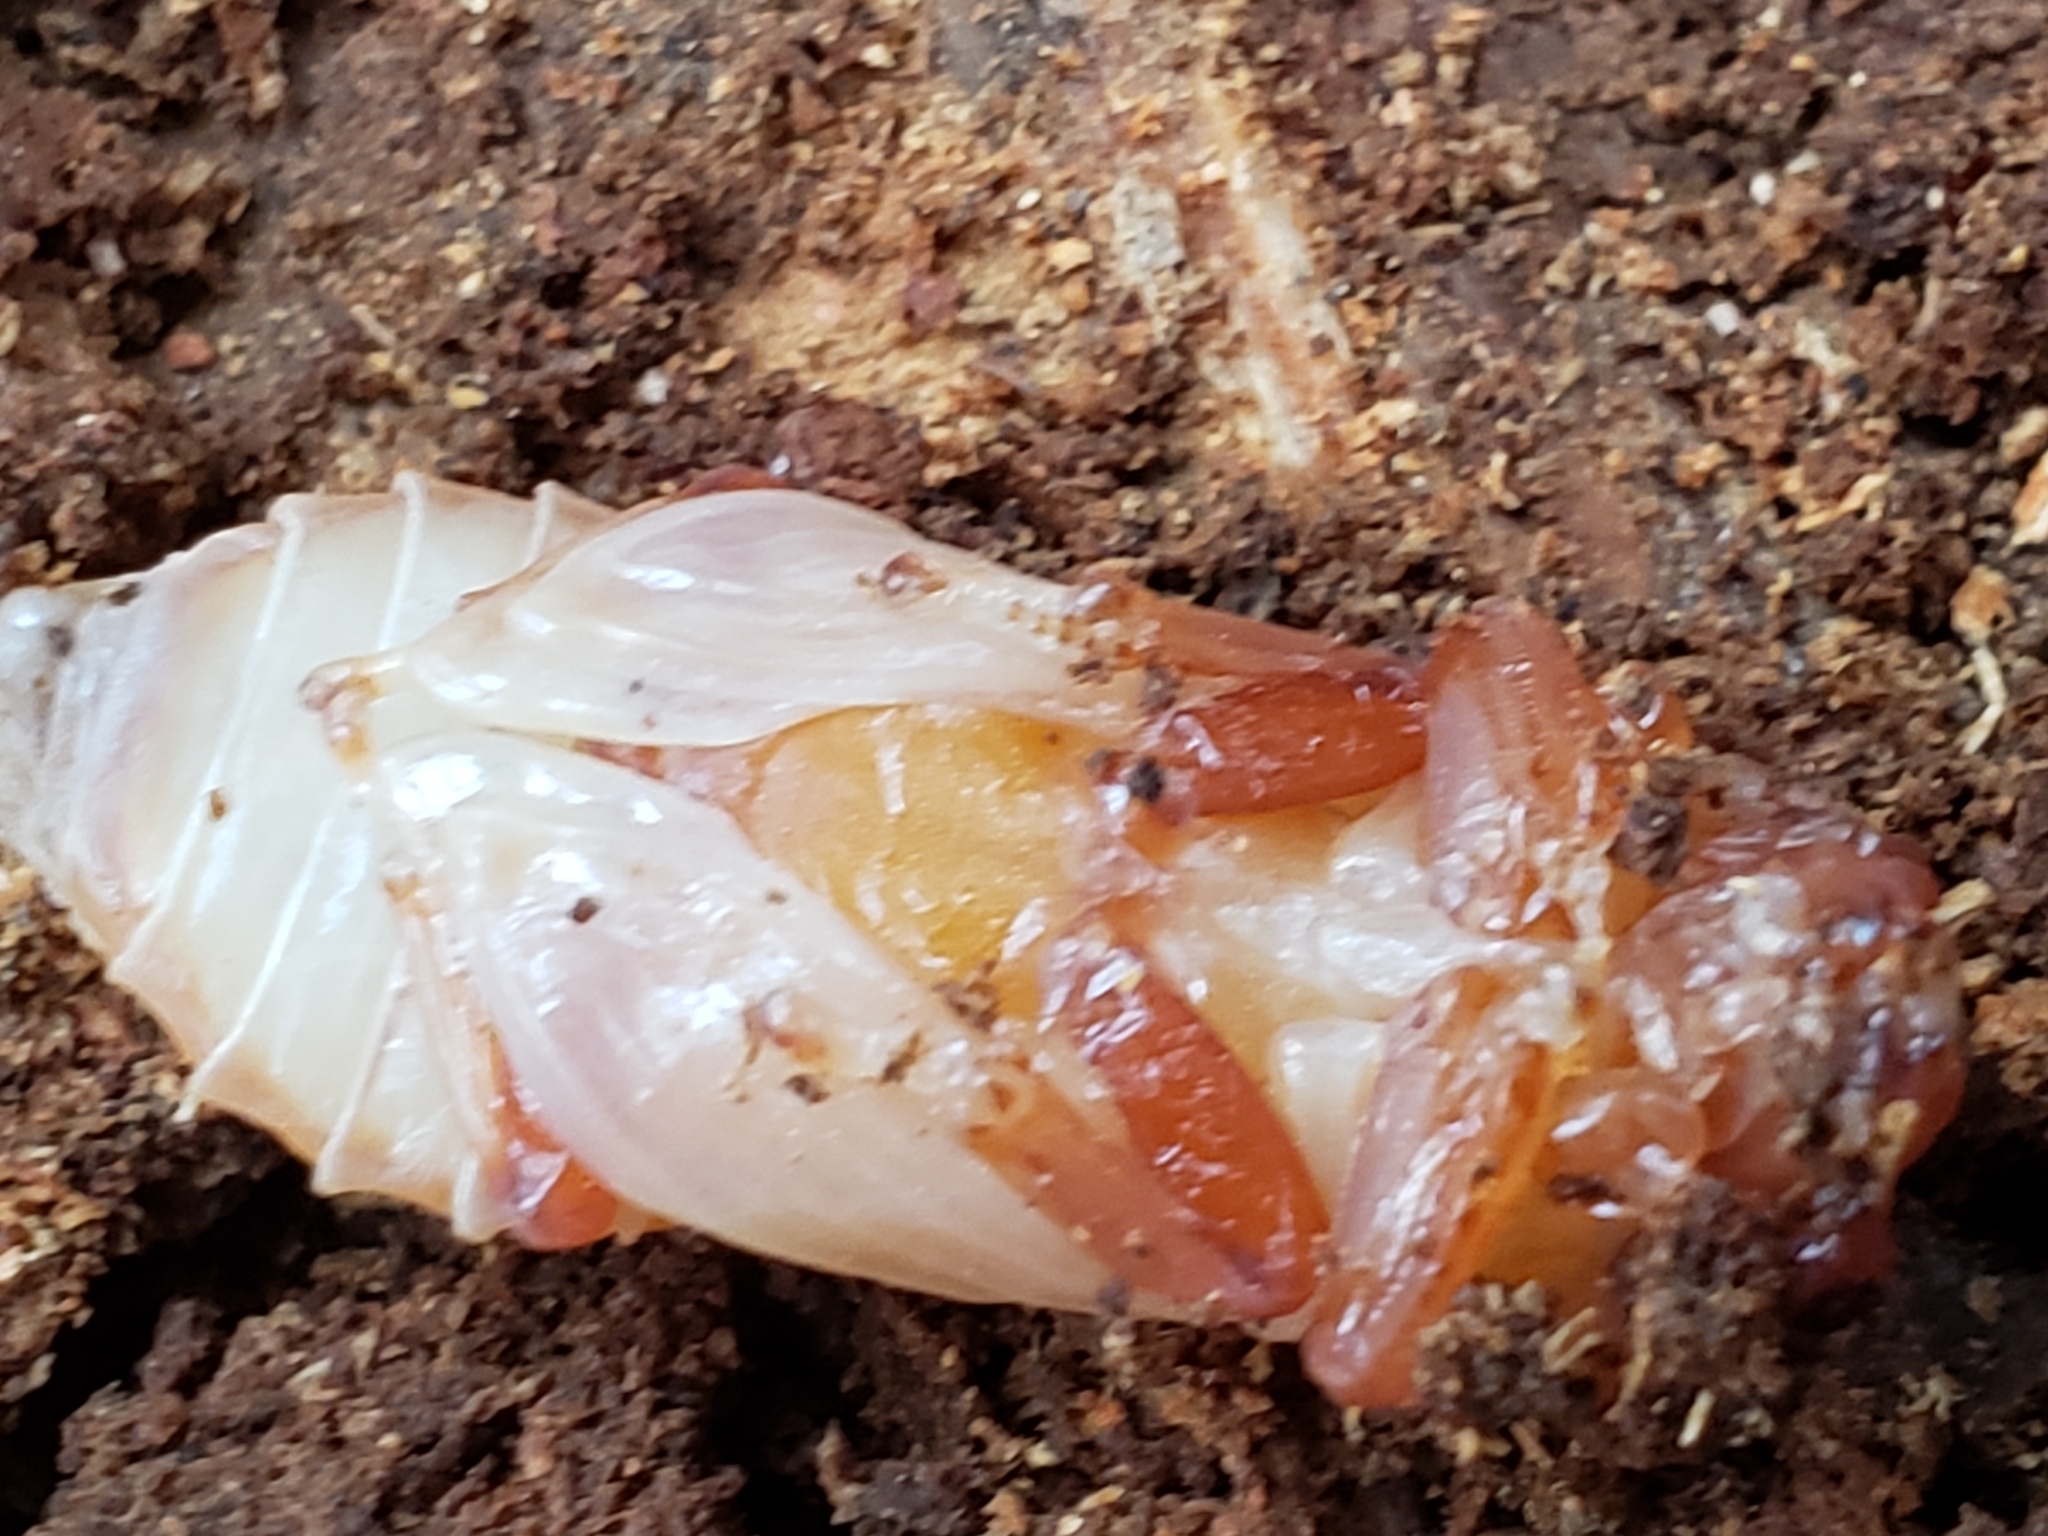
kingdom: Animalia
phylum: Arthropoda
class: Insecta
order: Coleoptera
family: Passalidae
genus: Odontotaenius
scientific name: Odontotaenius disjunctus
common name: Patent leather beetle
